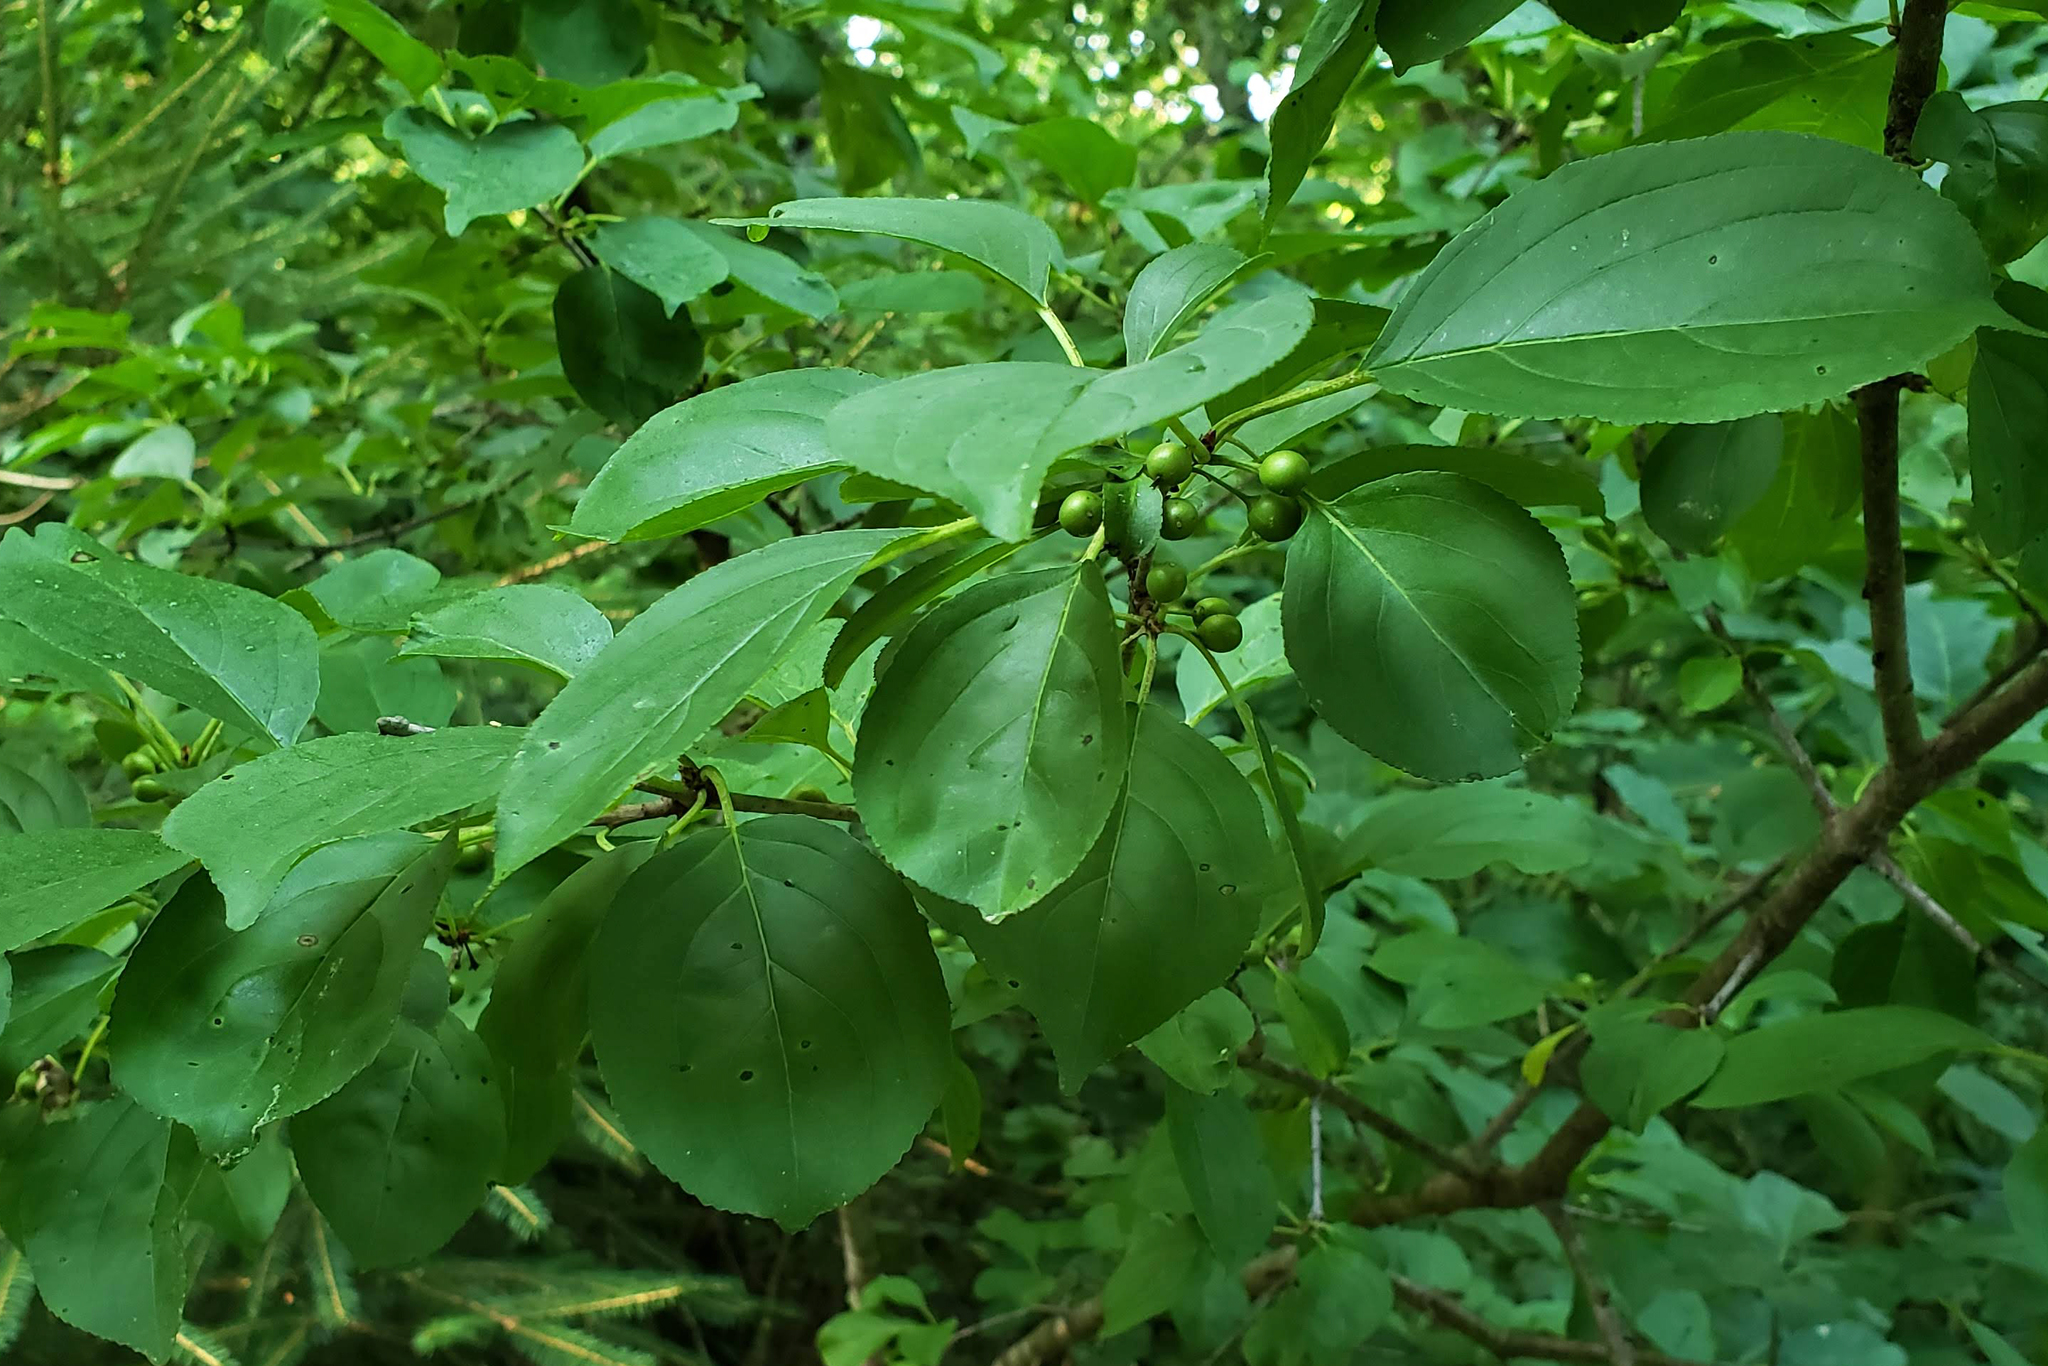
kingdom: Plantae
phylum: Tracheophyta
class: Magnoliopsida
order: Rosales
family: Rhamnaceae
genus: Rhamnus
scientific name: Rhamnus cathartica
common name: Common buckthorn
